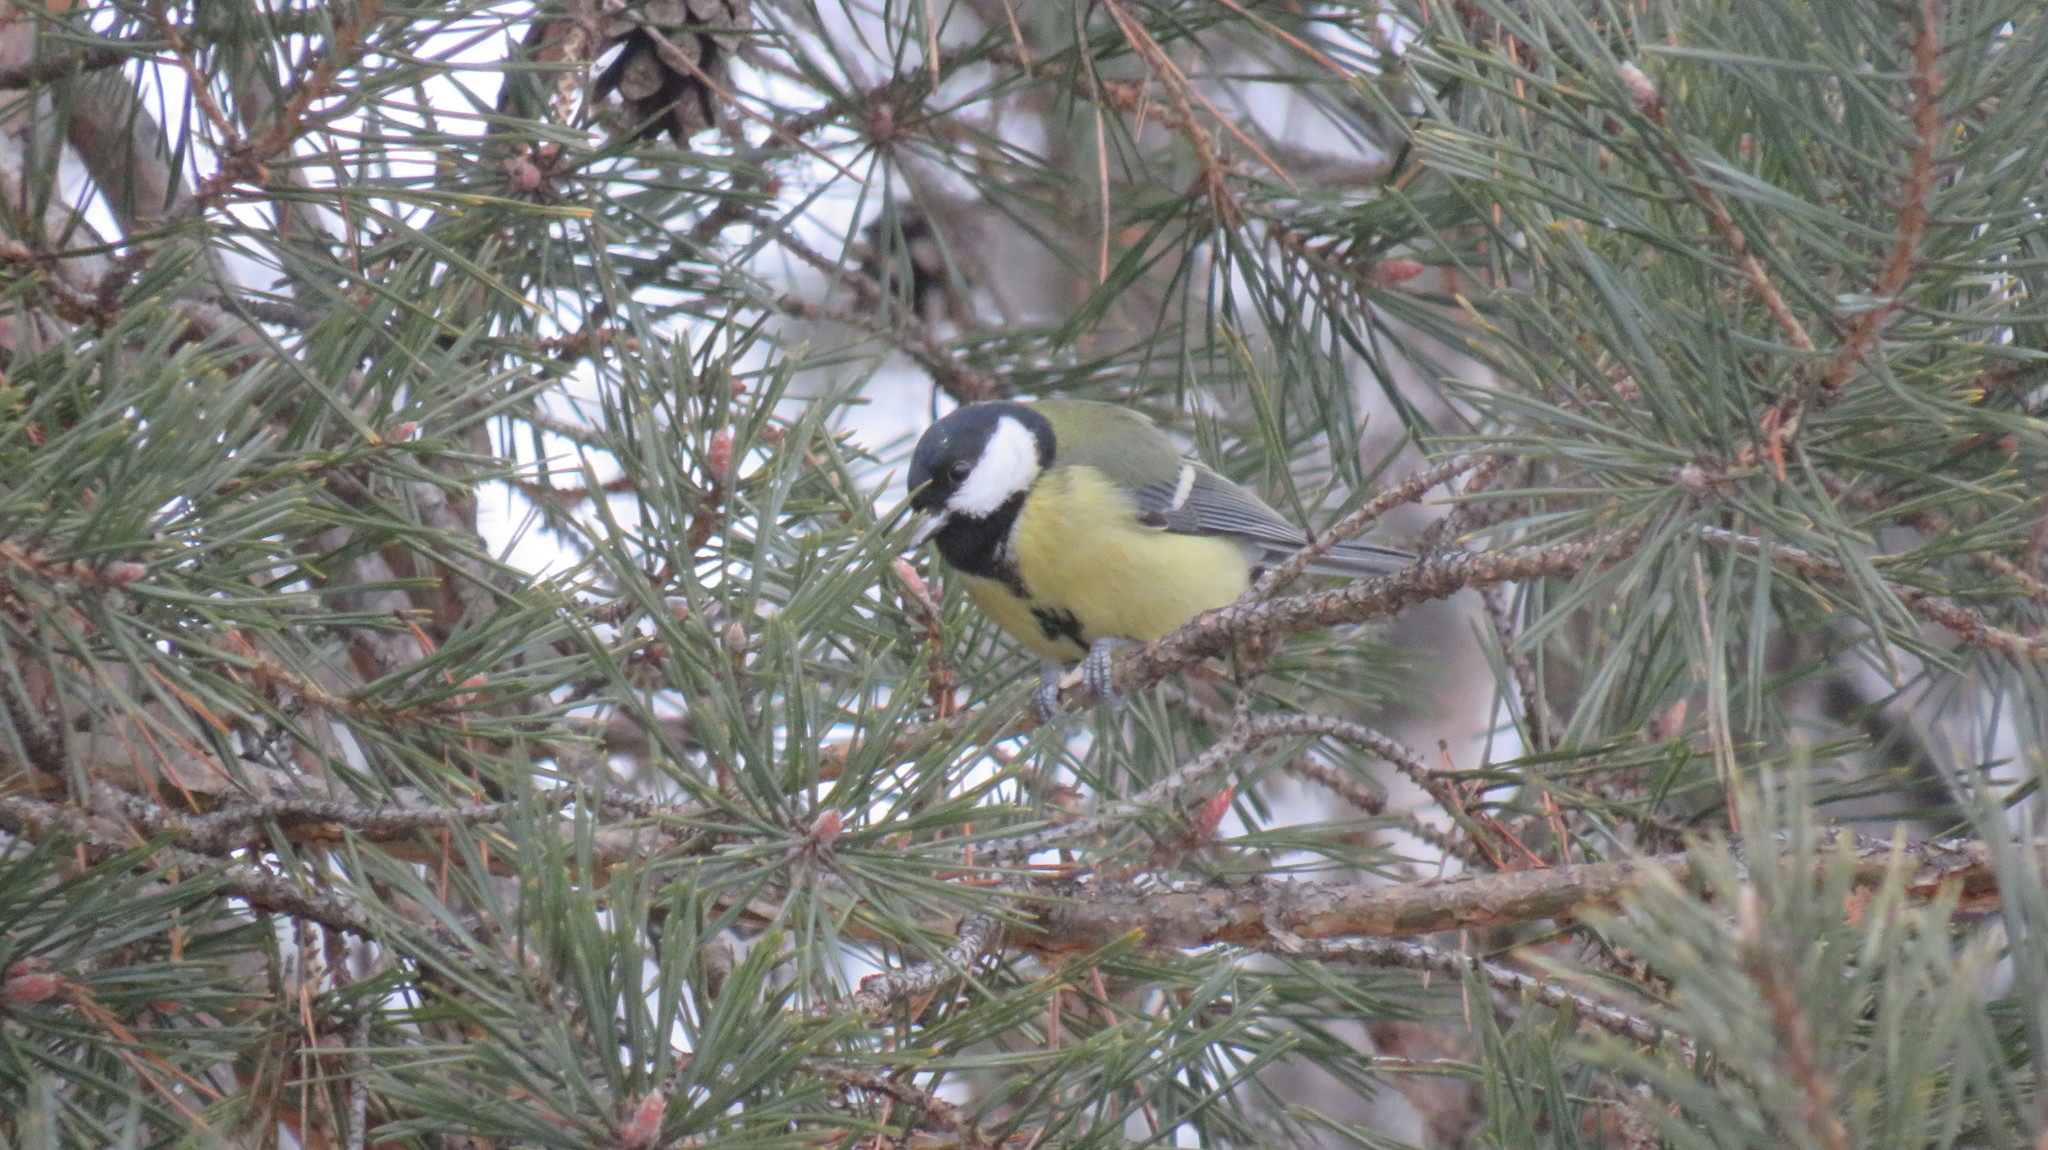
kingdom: Animalia
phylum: Chordata
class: Aves
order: Passeriformes
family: Paridae
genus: Parus
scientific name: Parus major
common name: Great tit
